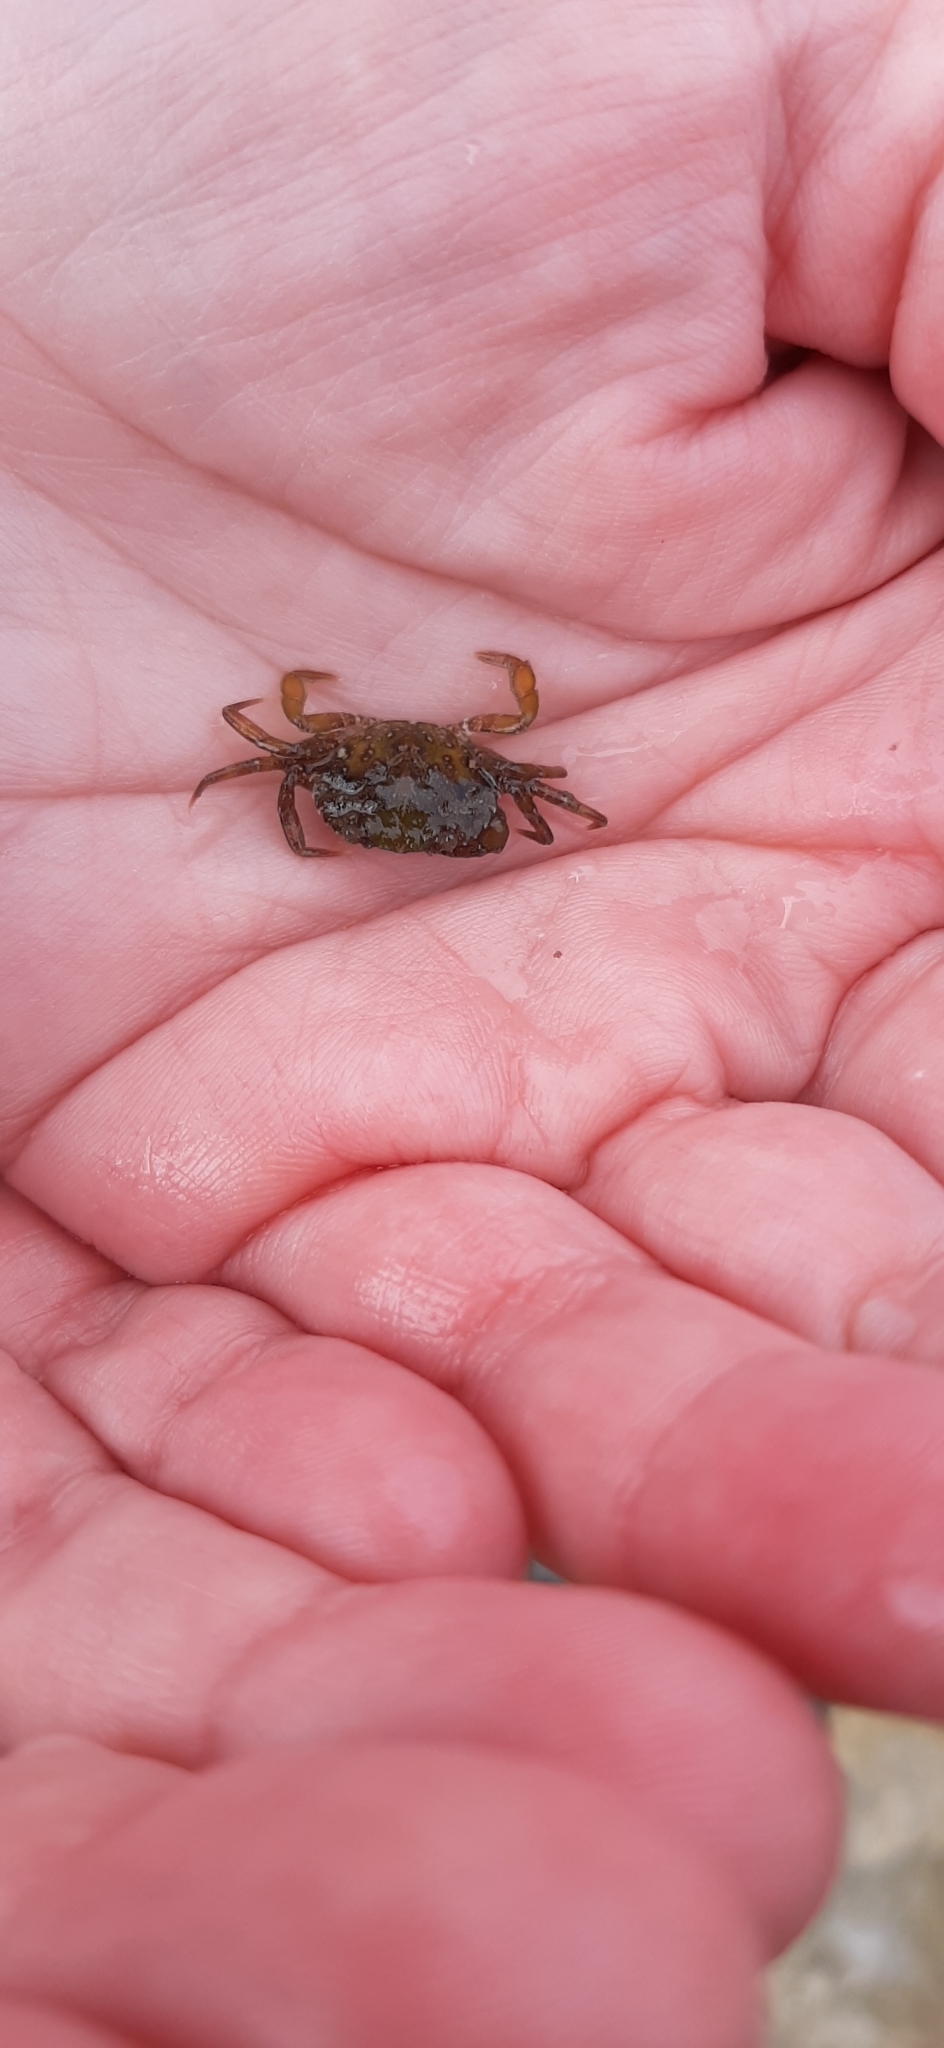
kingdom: Animalia
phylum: Arthropoda
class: Malacostraca
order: Decapoda
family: Carcinidae
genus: Carcinus
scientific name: Carcinus maenas
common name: European green crab
